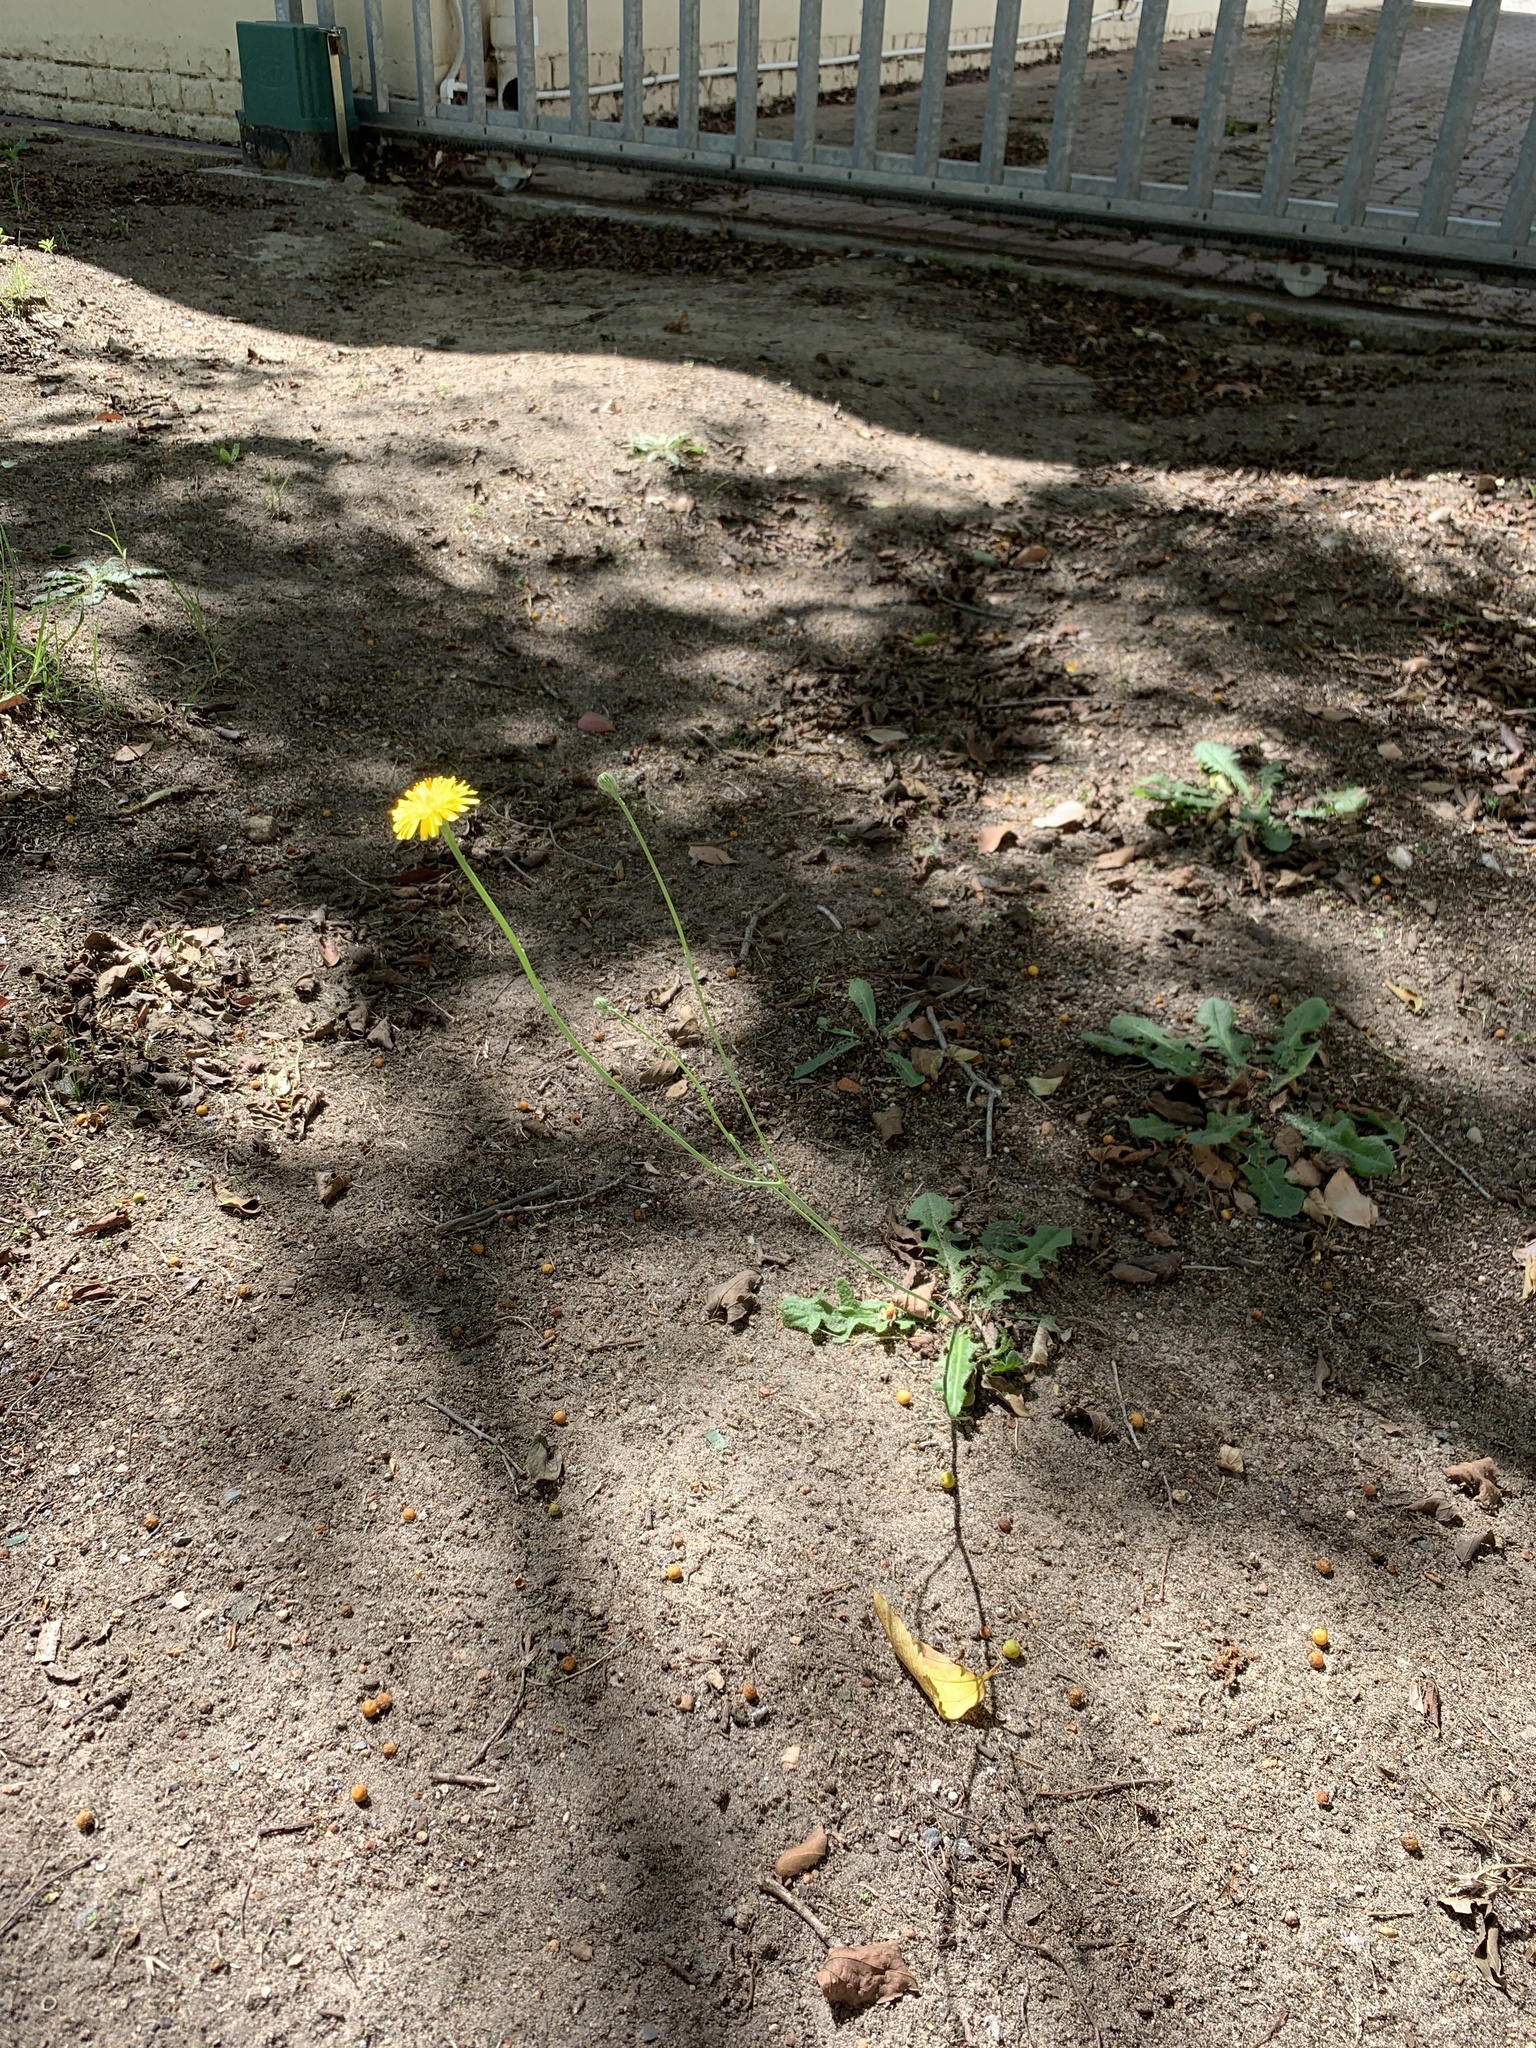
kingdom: Plantae
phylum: Tracheophyta
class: Magnoliopsida
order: Asterales
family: Asteraceae
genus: Hypochaeris
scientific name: Hypochaeris radicata
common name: Flatweed
